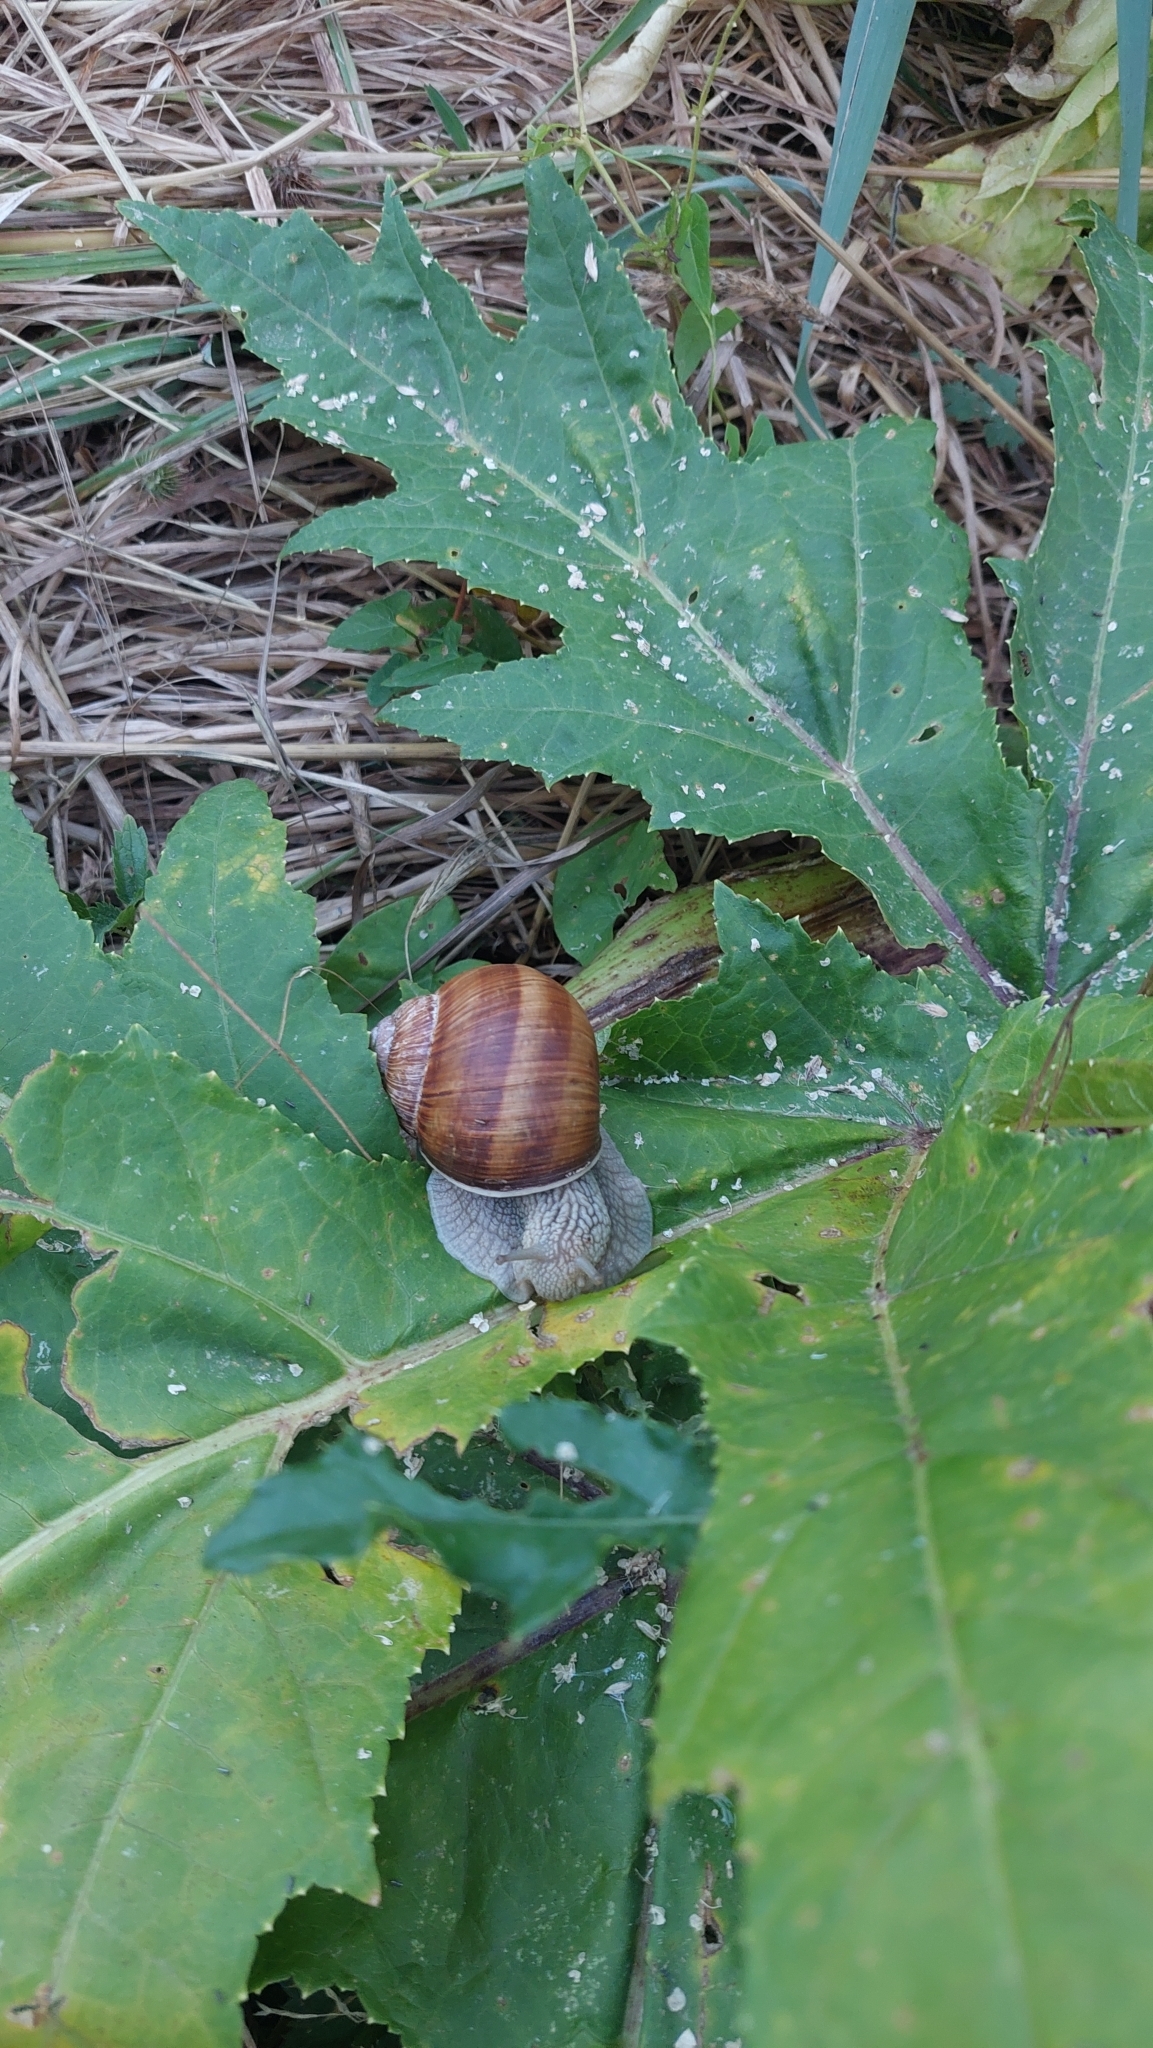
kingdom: Animalia
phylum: Mollusca
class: Gastropoda
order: Stylommatophora
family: Helicidae
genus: Helix
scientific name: Helix pomatia
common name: Roman snail
